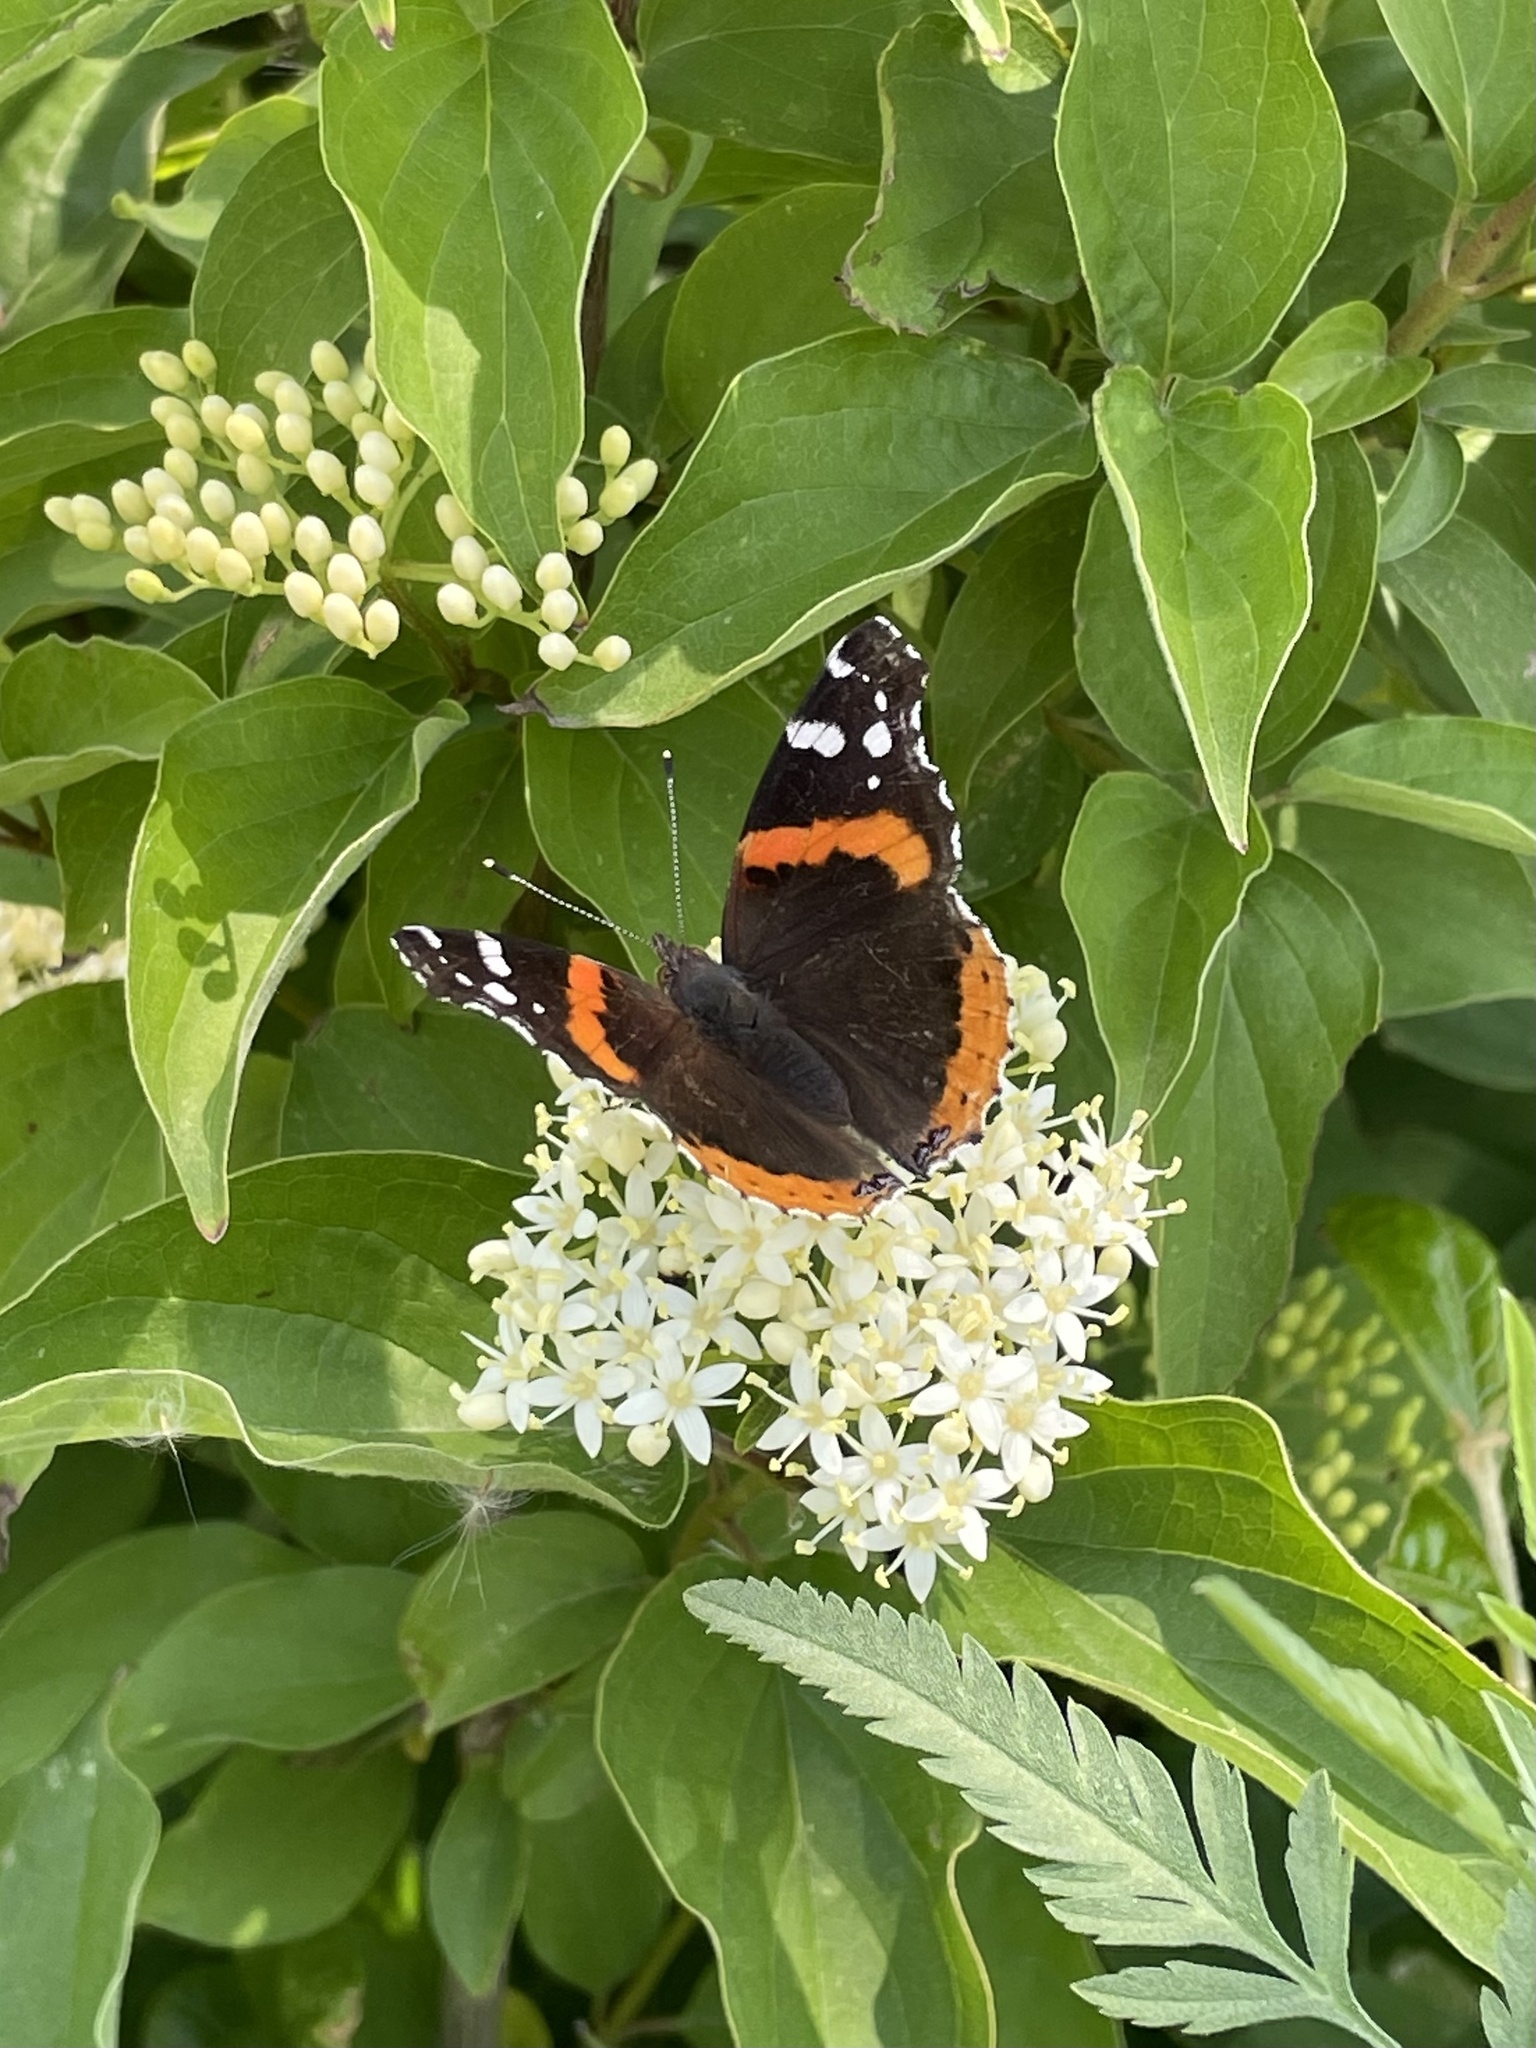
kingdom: Animalia
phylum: Arthropoda
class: Insecta
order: Lepidoptera
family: Nymphalidae
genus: Vanessa
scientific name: Vanessa atalanta
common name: Red admiral
